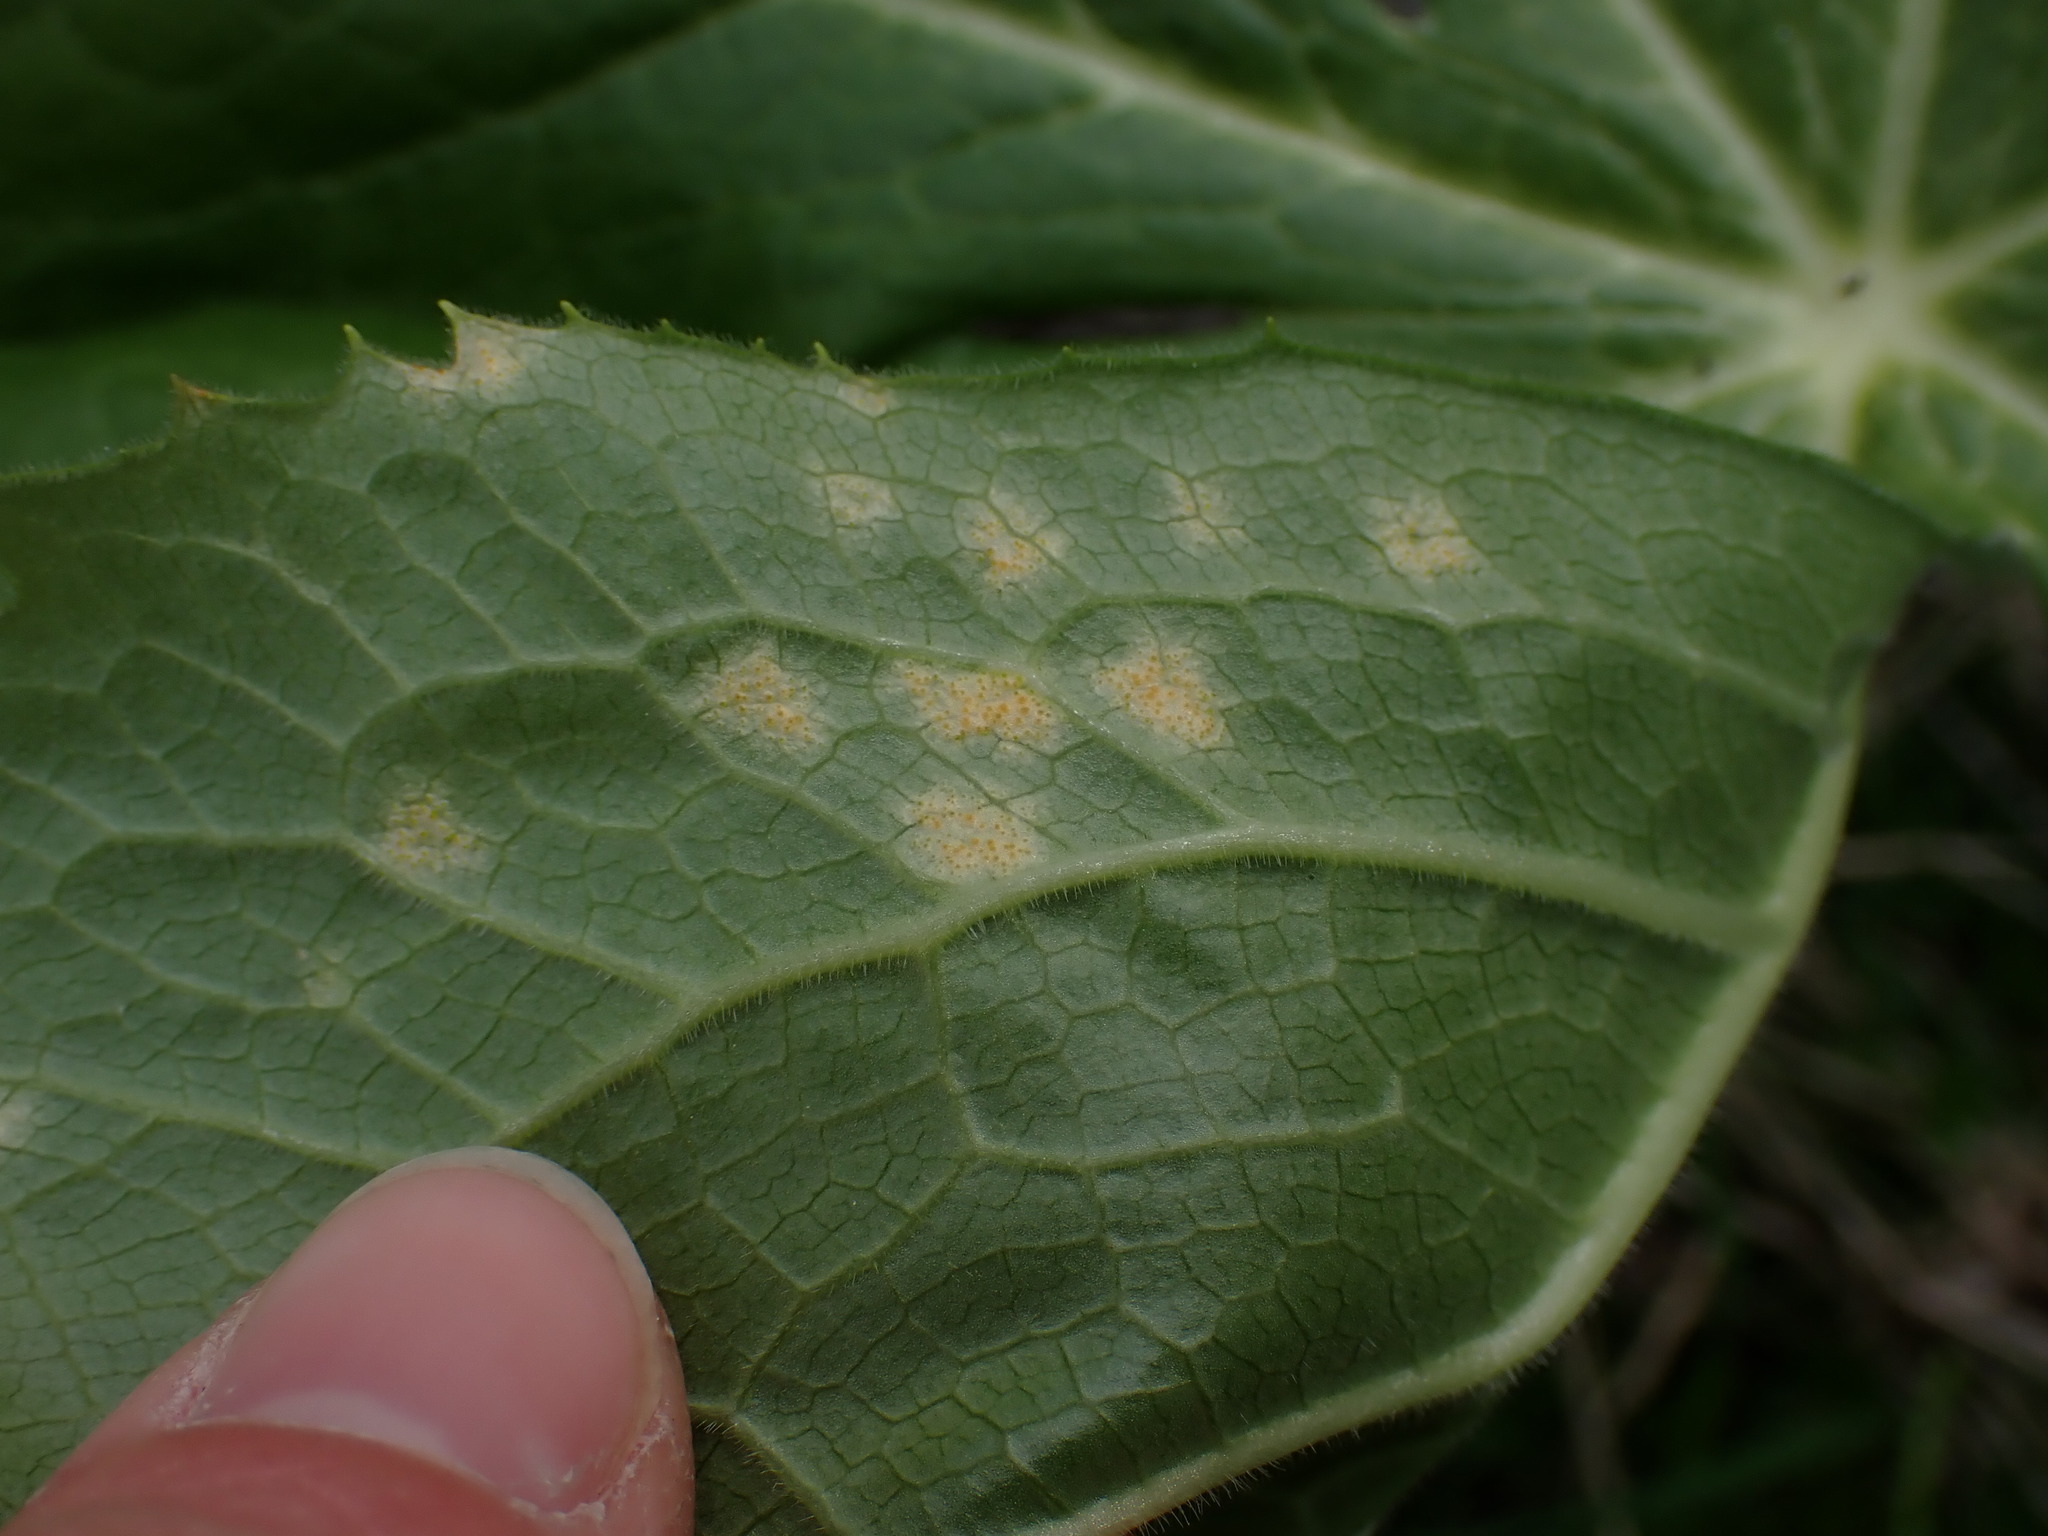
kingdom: Fungi
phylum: Basidiomycota
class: Pucciniomycetes
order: Pucciniales
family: Pucciniaceae
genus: Puccinia
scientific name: Puccinia podophylli
